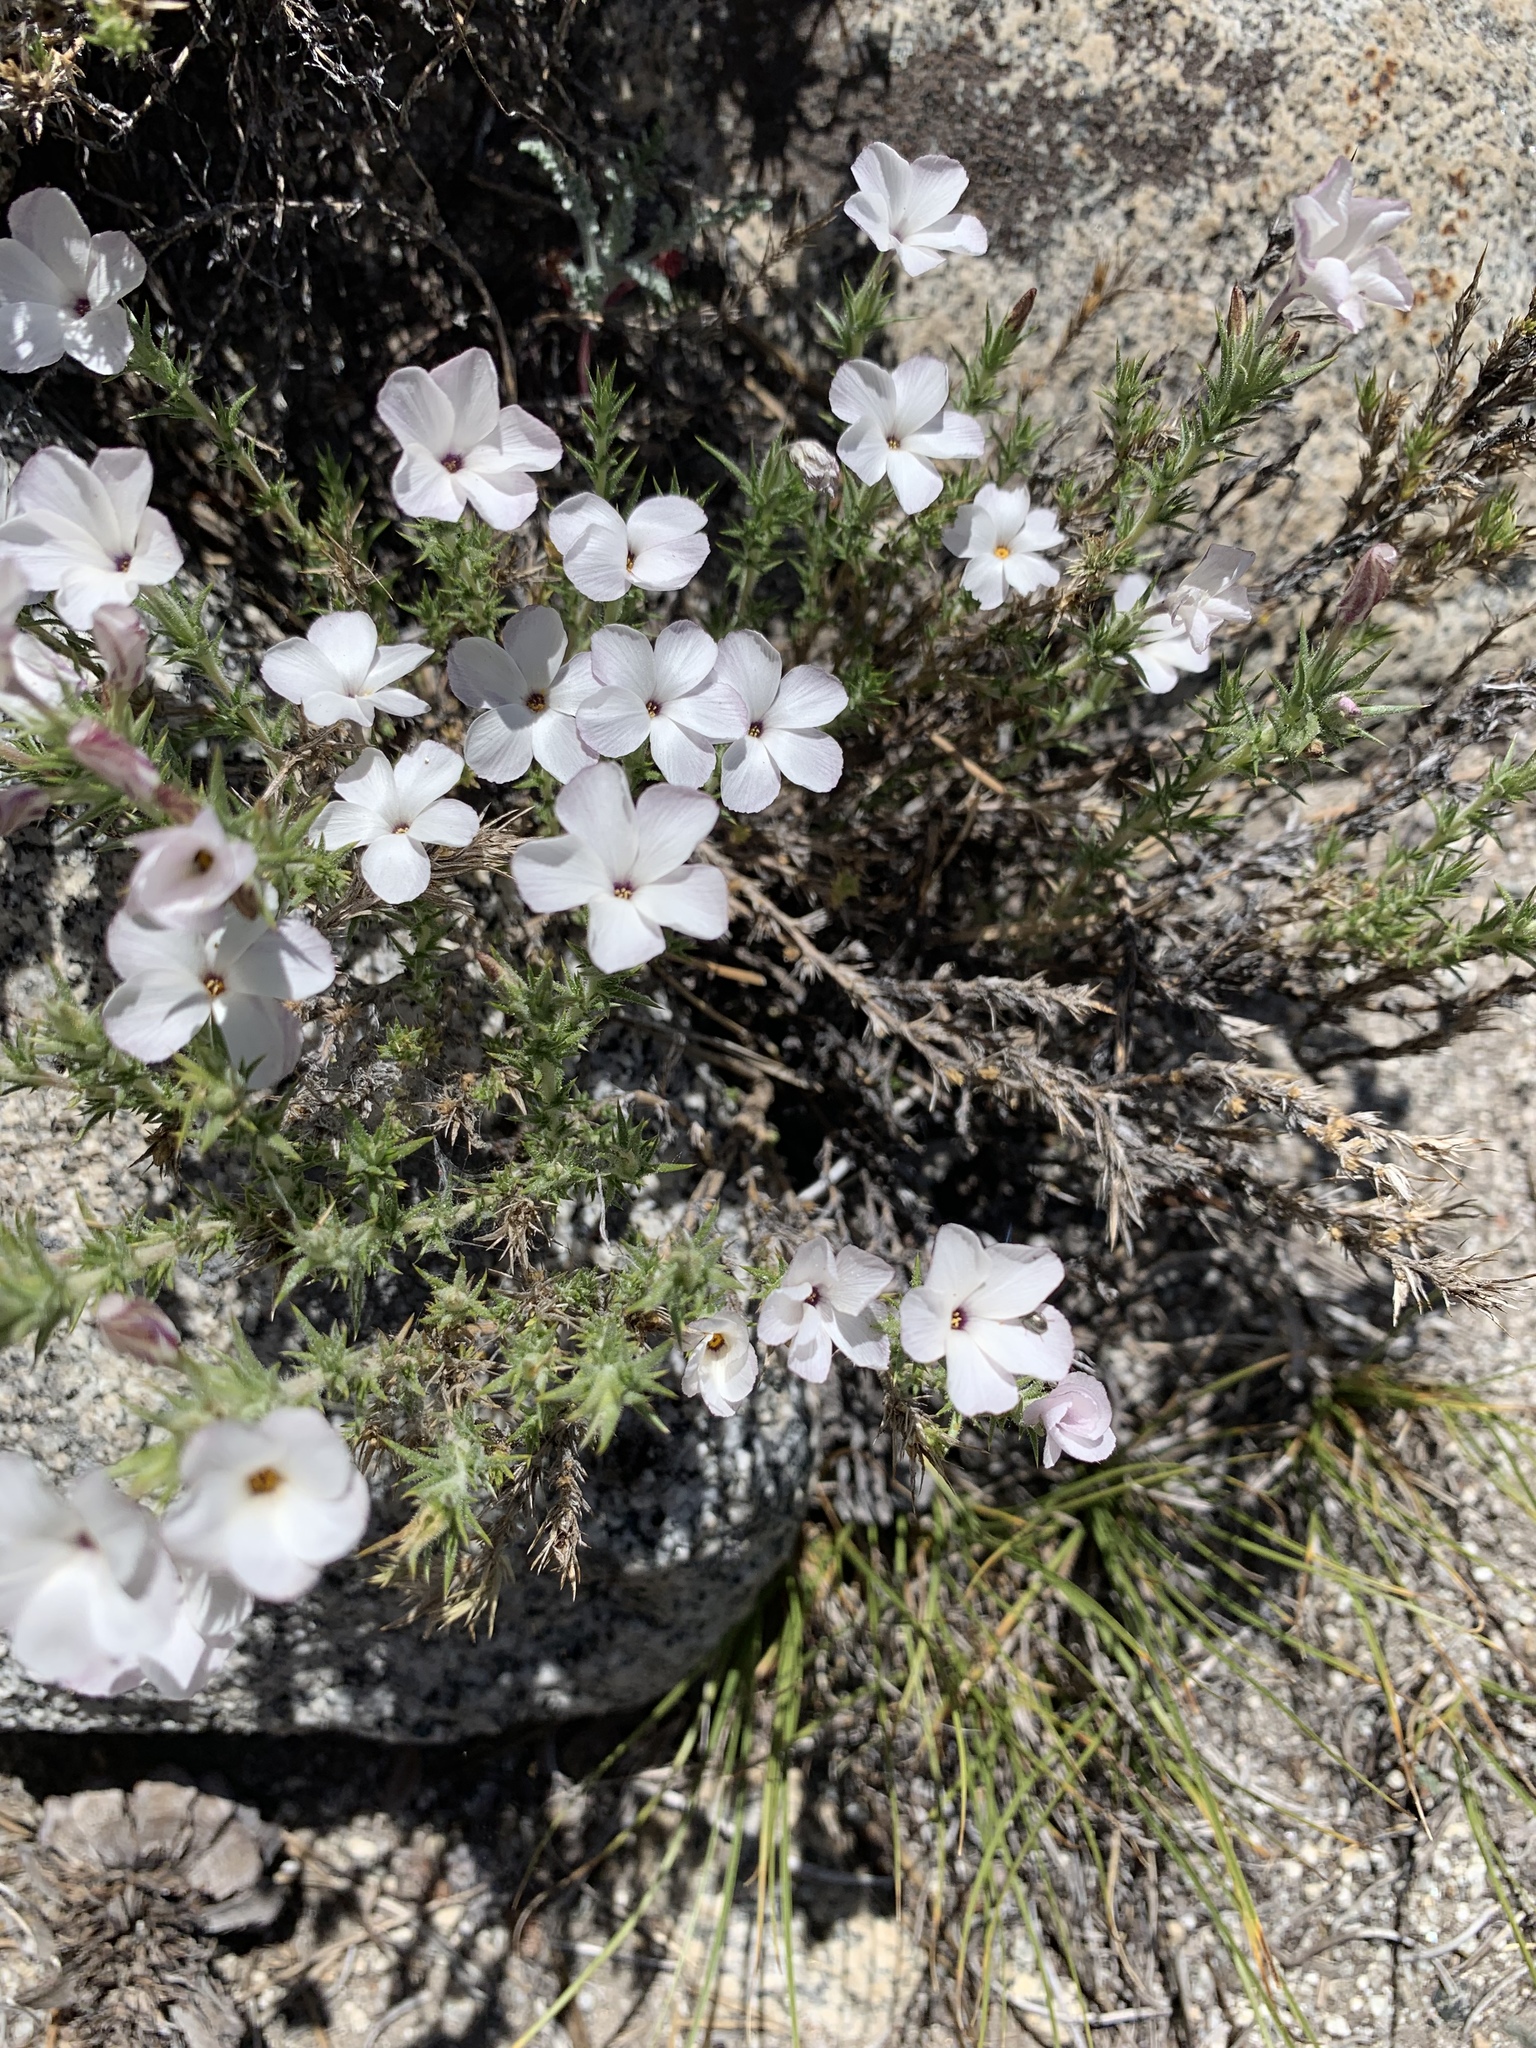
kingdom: Plantae
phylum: Tracheophyta
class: Magnoliopsida
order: Ericales
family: Polemoniaceae
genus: Linanthus
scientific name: Linanthus pungens
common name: Granite prickly phlox
